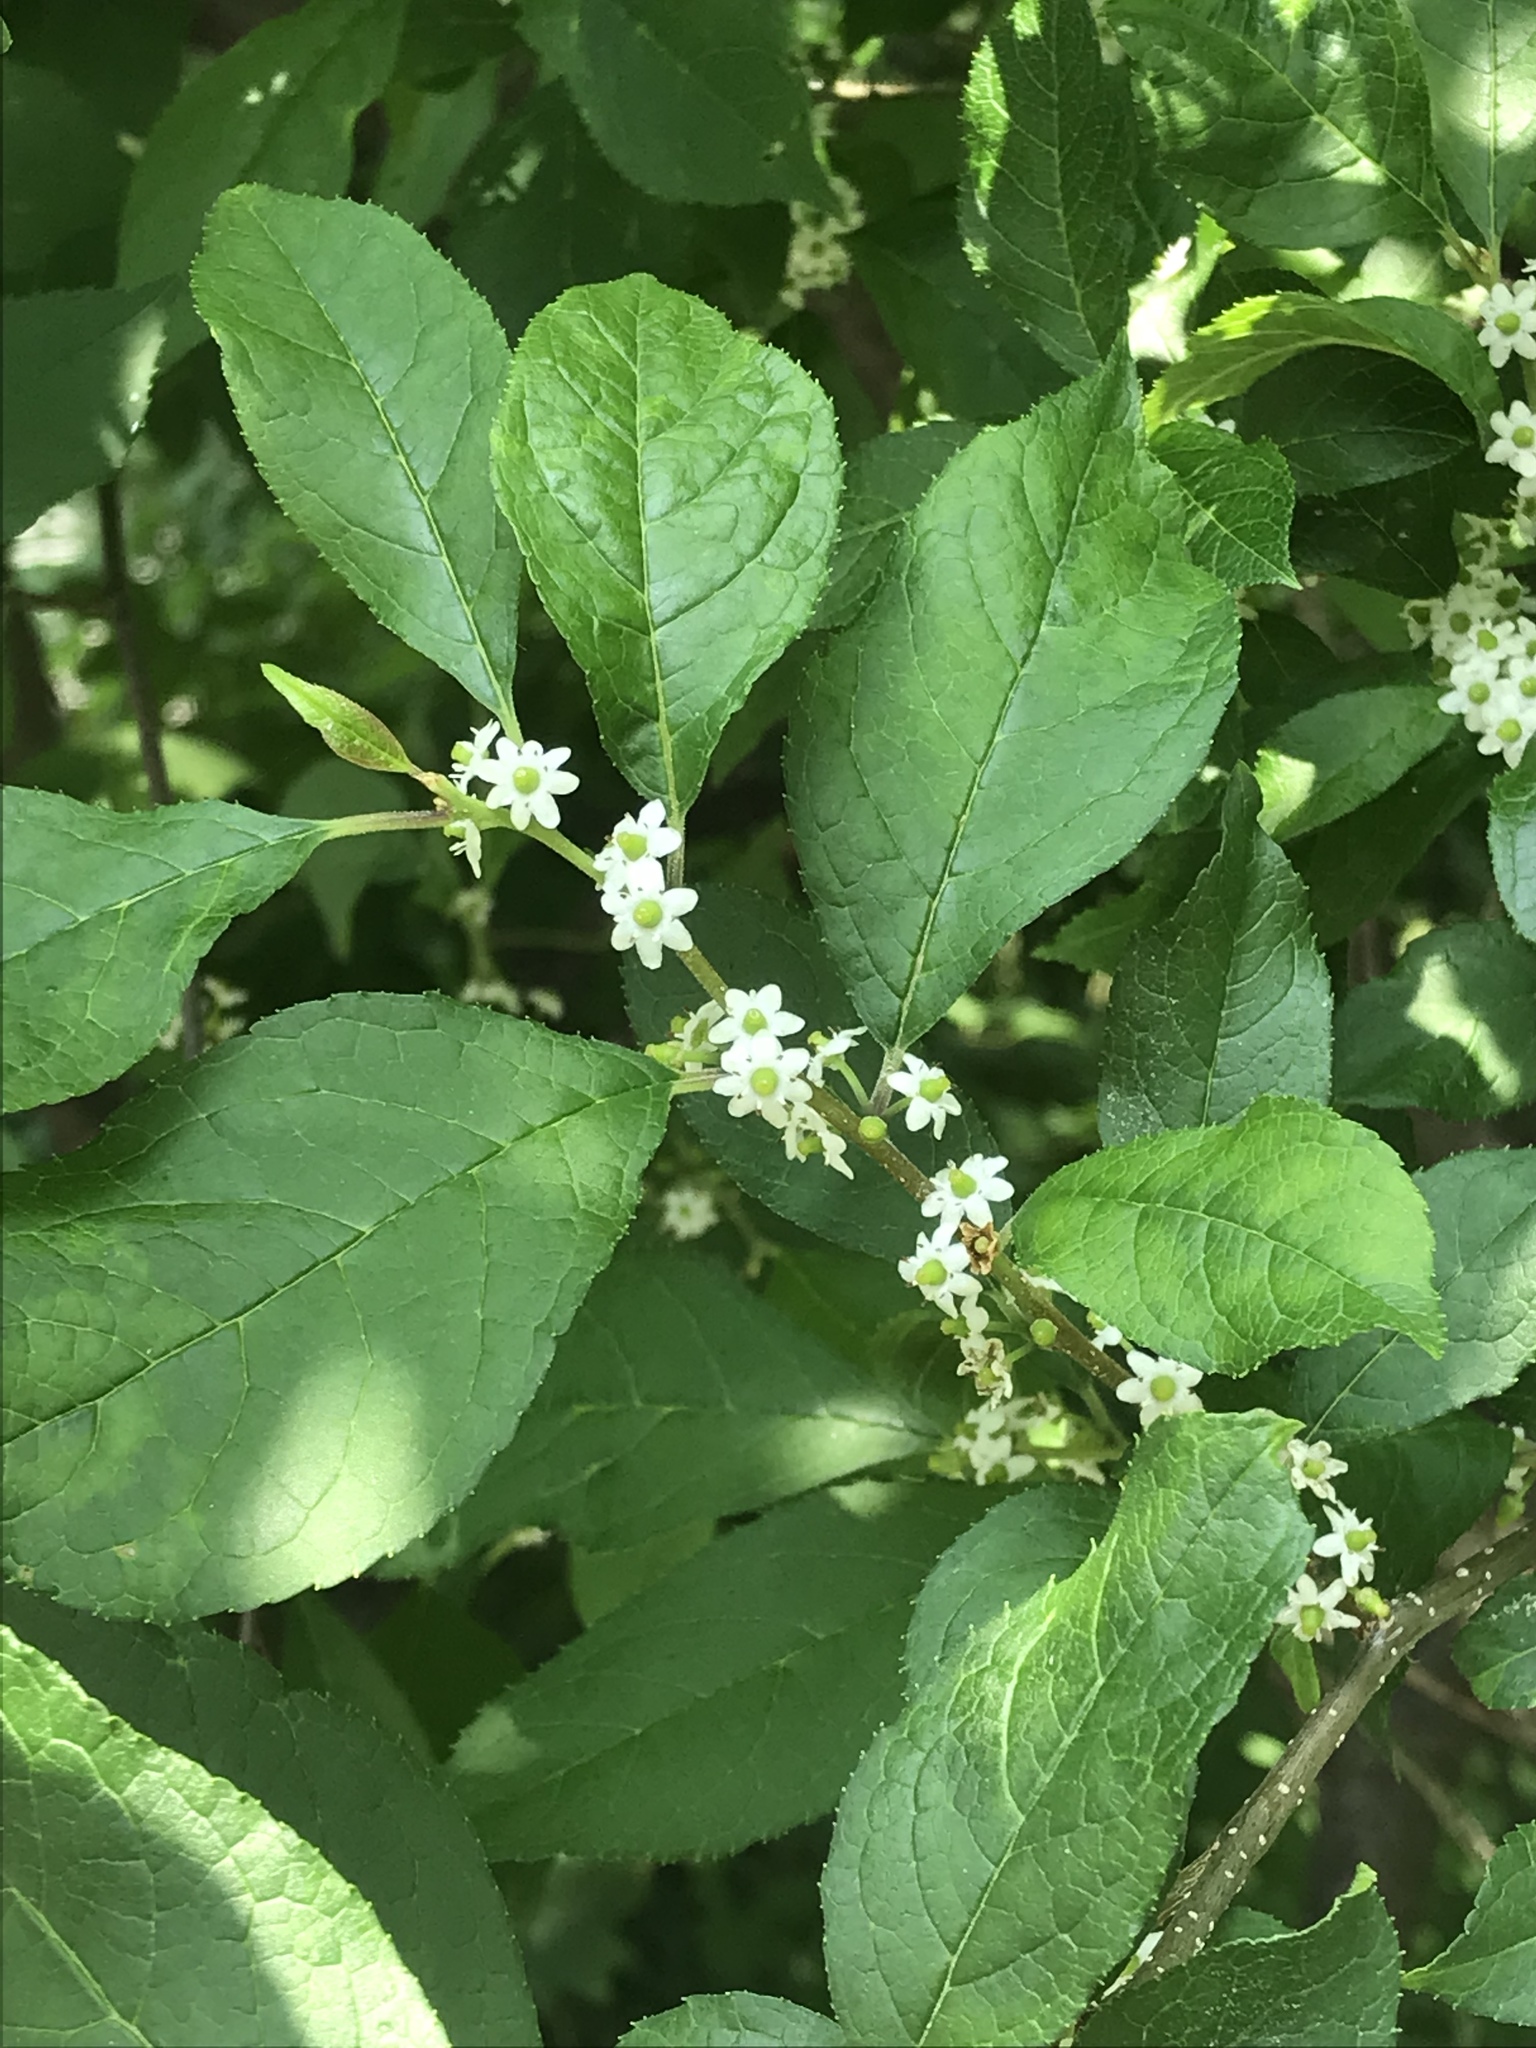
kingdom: Plantae
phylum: Tracheophyta
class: Magnoliopsida
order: Aquifoliales
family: Aquifoliaceae
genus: Ilex
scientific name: Ilex verticillata
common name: Virginia winterberry
